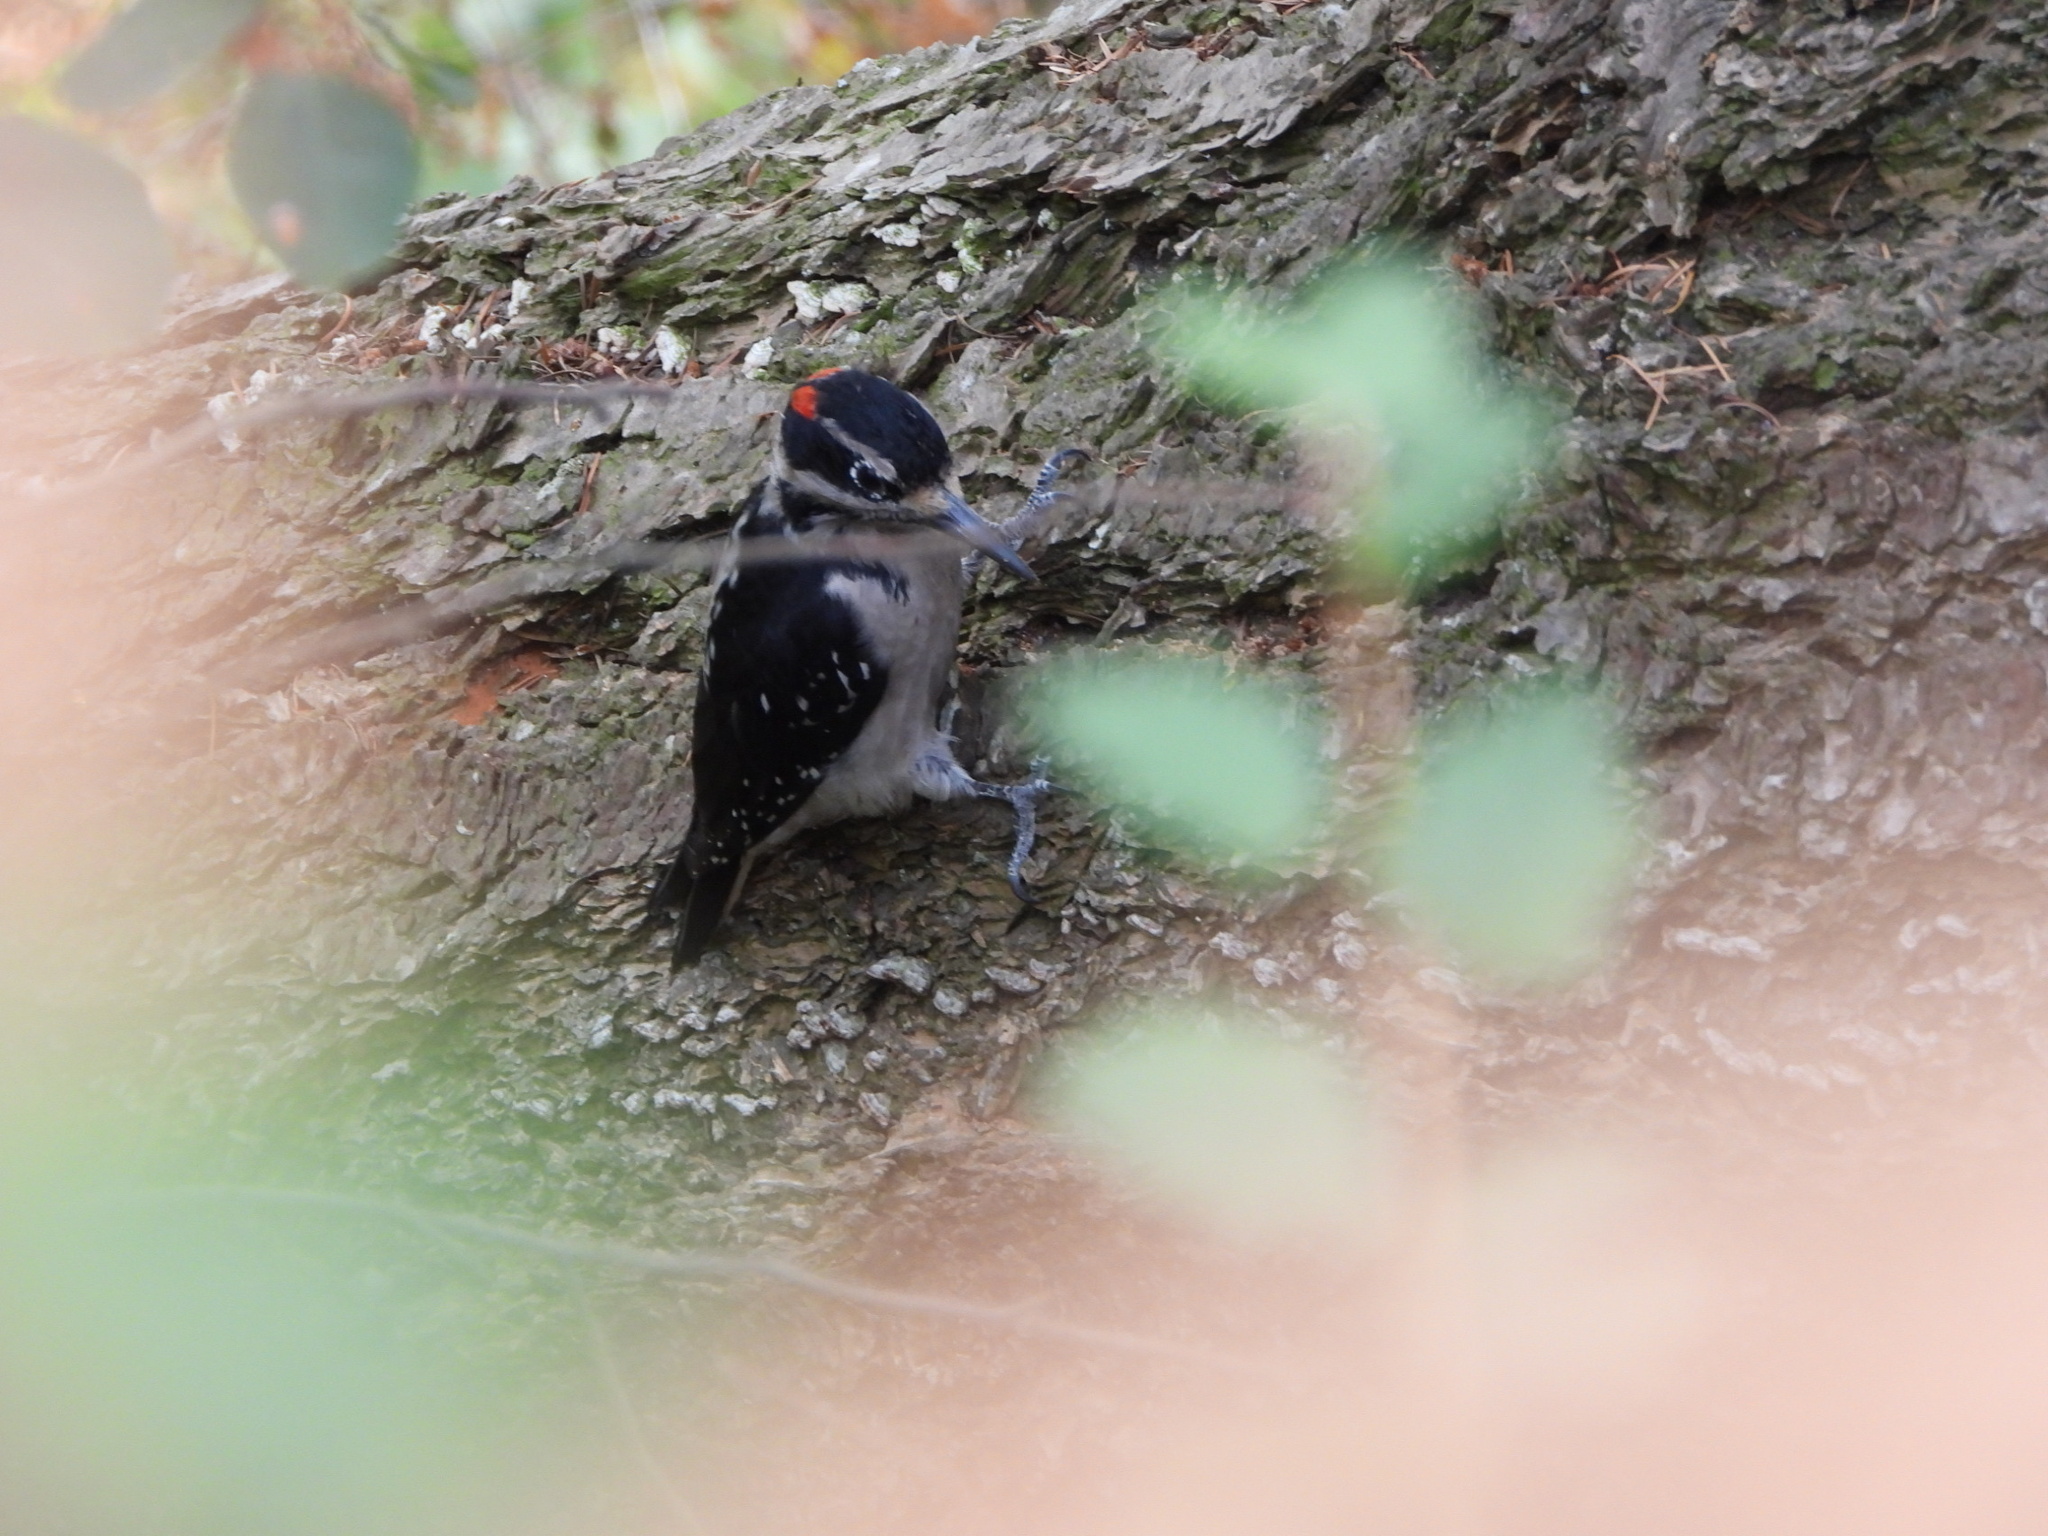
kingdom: Animalia
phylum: Chordata
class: Aves
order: Piciformes
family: Picidae
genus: Leuconotopicus
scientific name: Leuconotopicus villosus
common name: Hairy woodpecker
